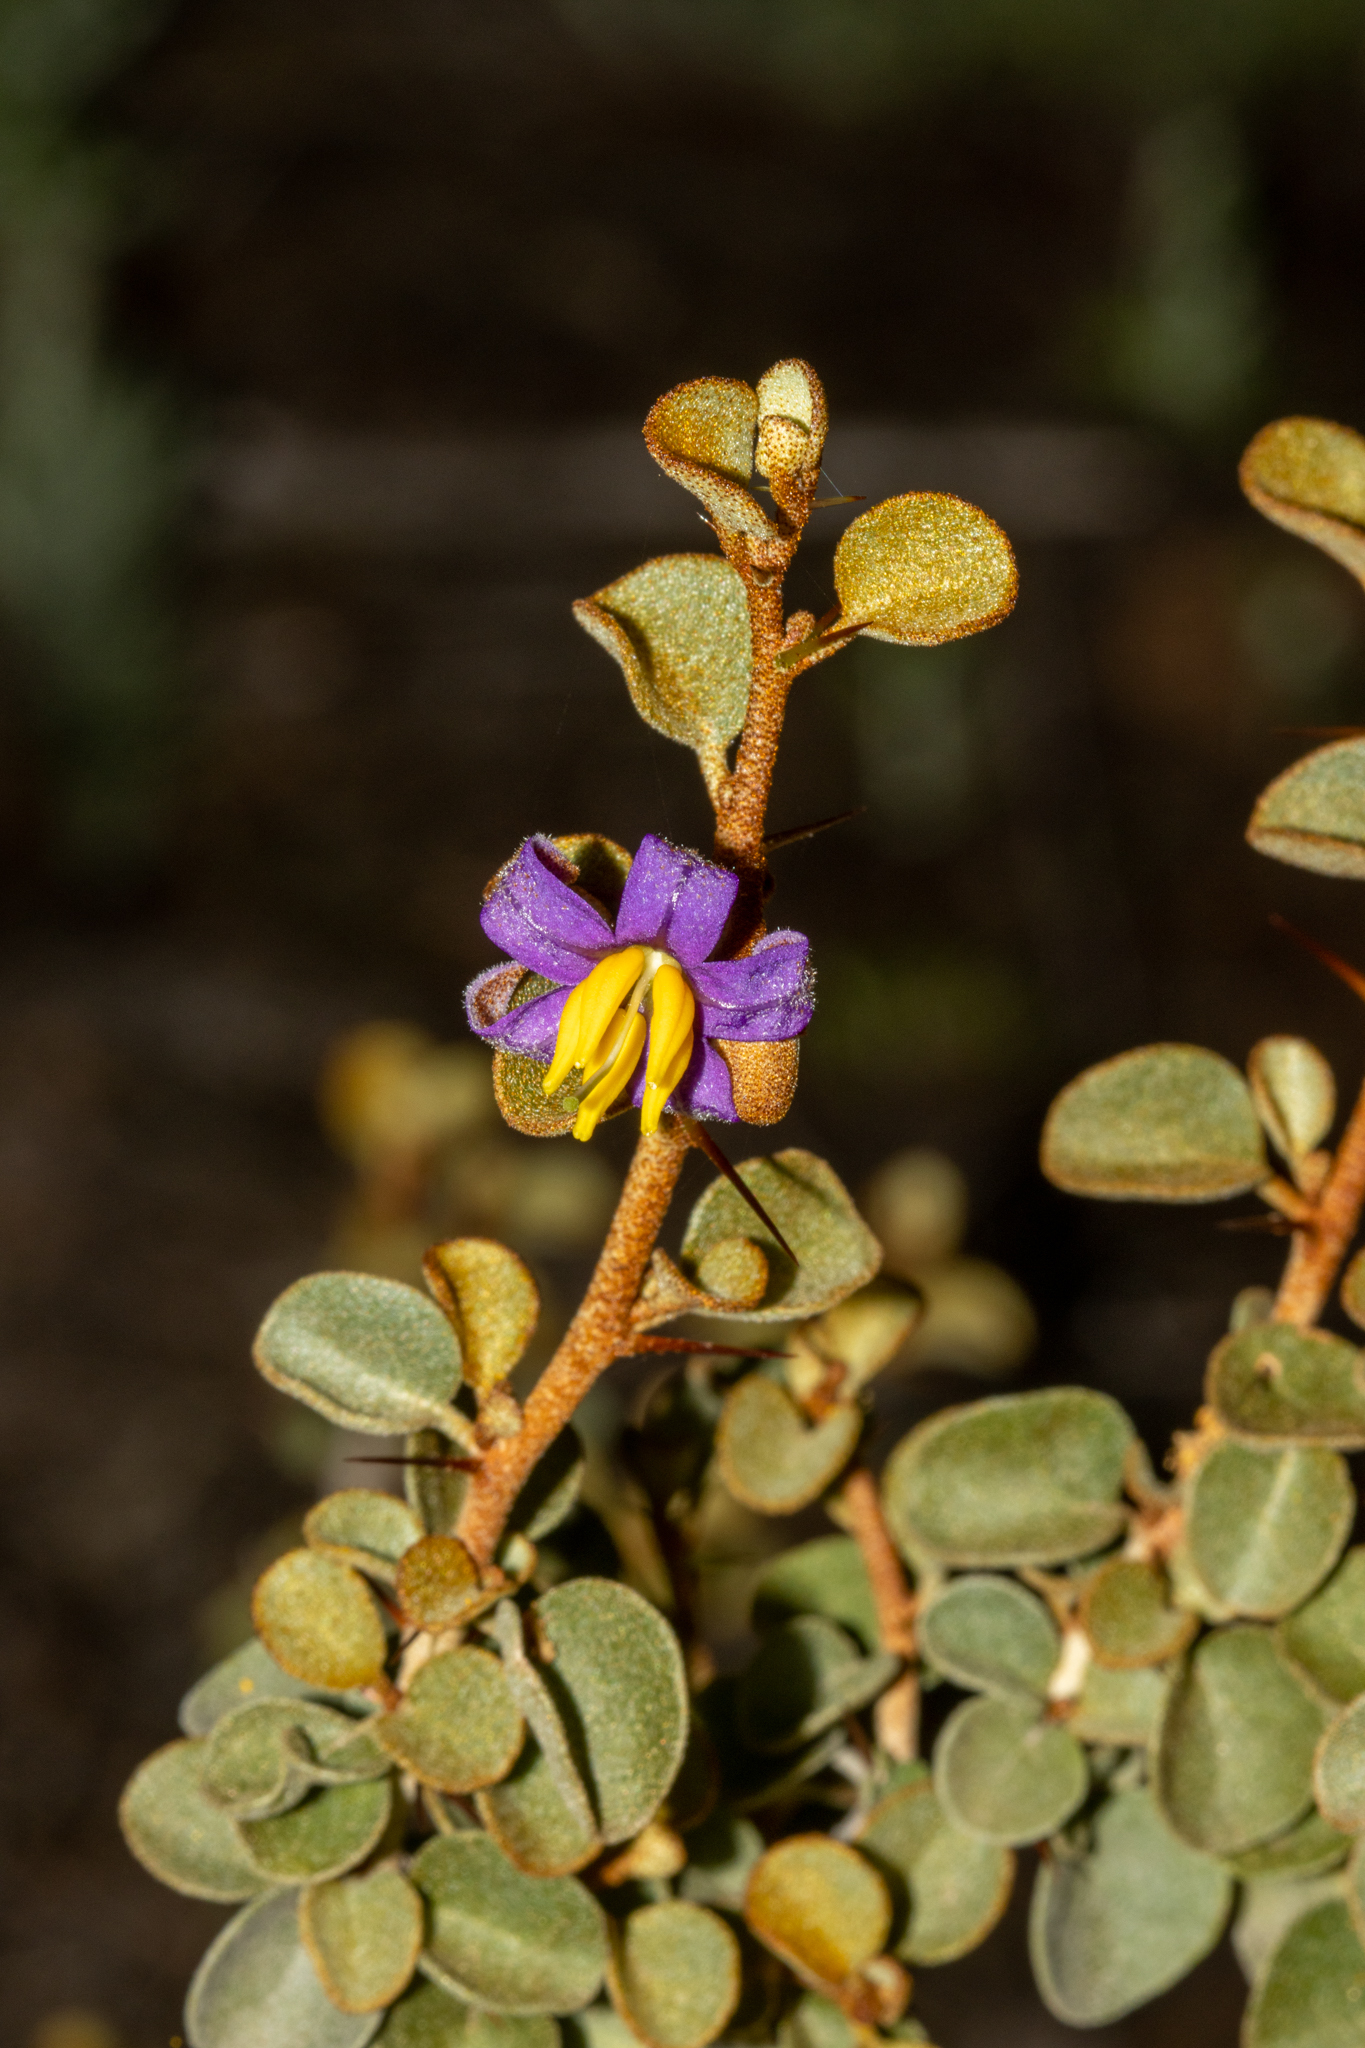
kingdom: Plantae
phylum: Tracheophyta
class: Magnoliopsida
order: Solanales
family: Solanaceae
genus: Solanum
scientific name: Solanum nummularium
